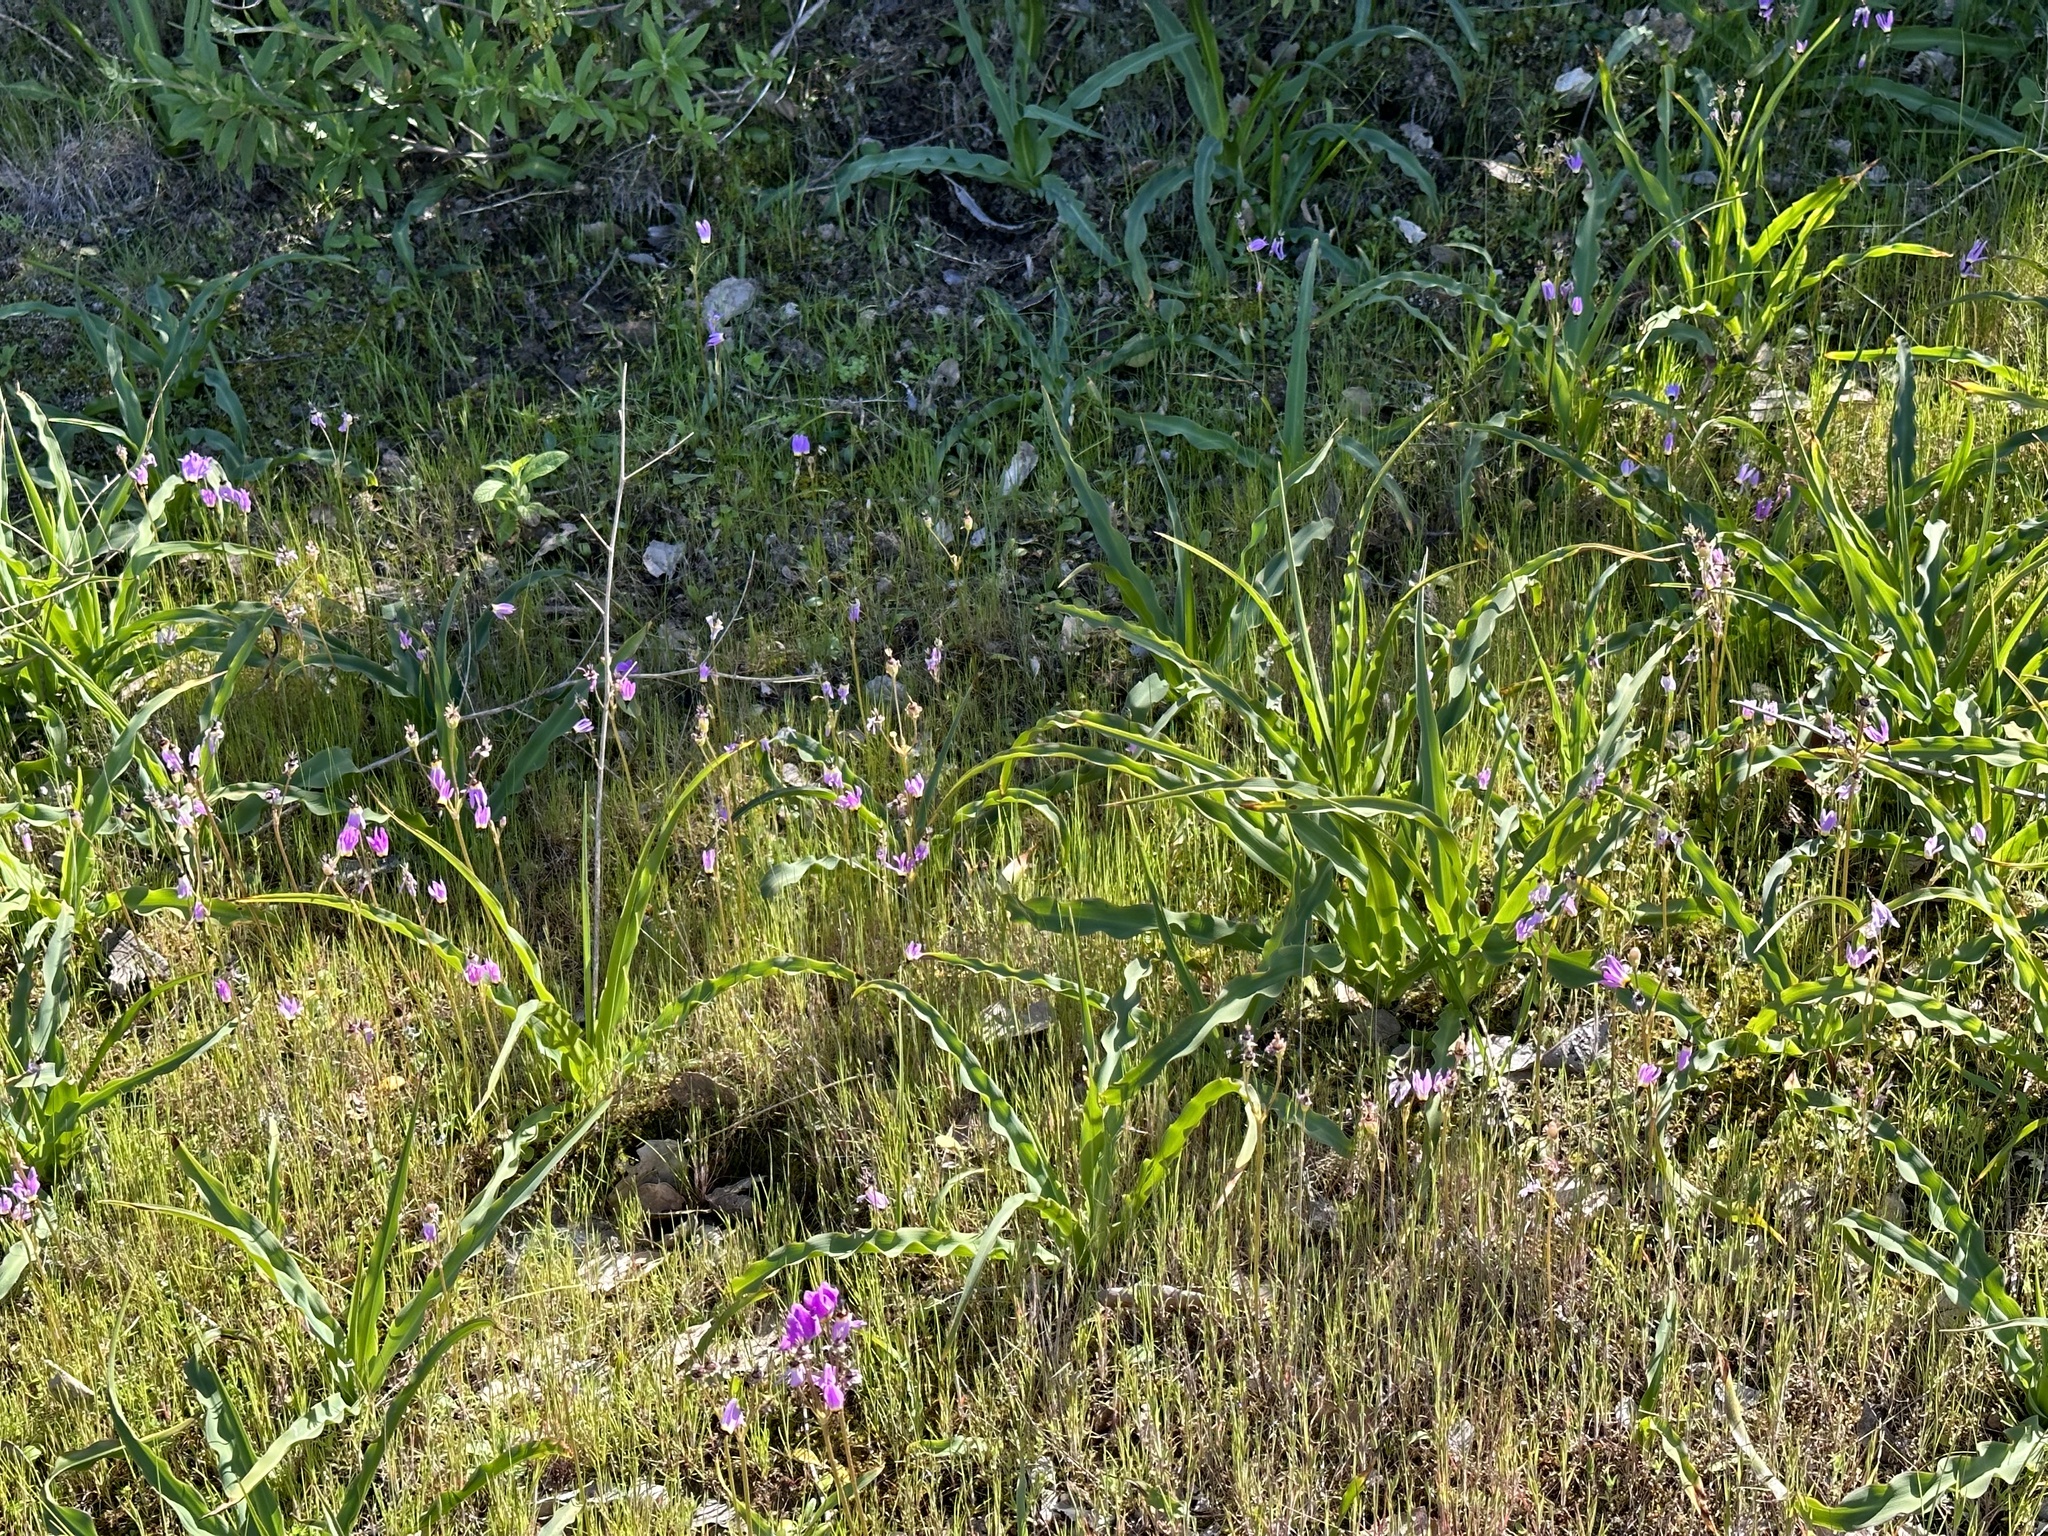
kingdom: Plantae
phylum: Tracheophyta
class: Magnoliopsida
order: Ericales
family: Primulaceae
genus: Dodecatheon
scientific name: Dodecatheon clevelandii
